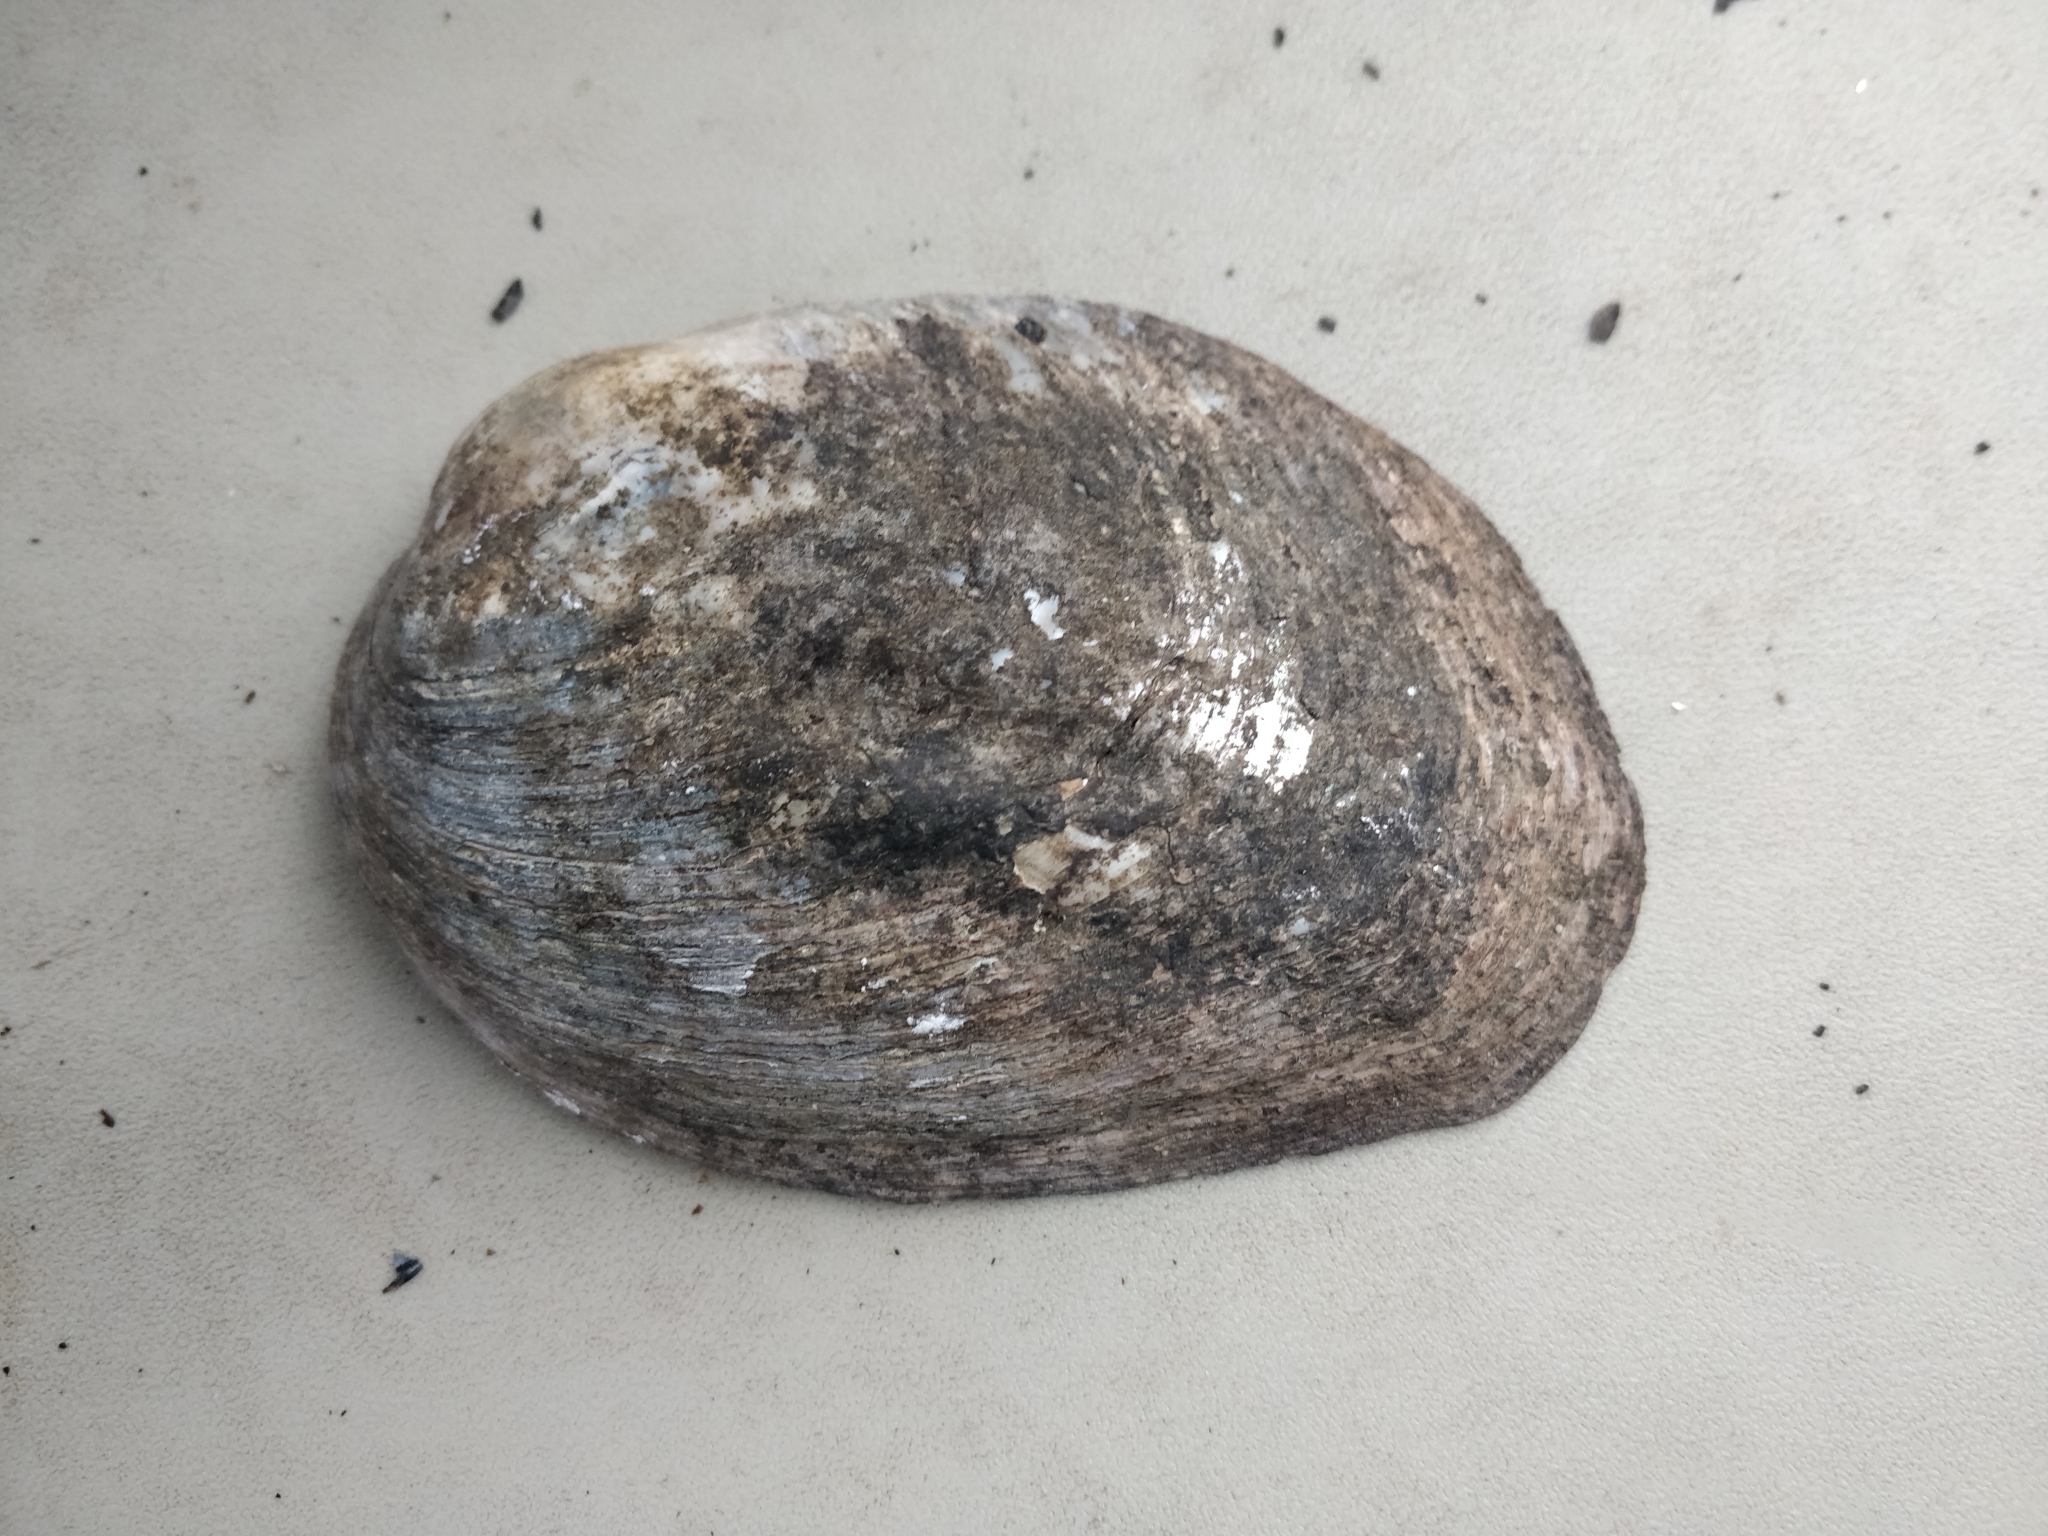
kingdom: Animalia
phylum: Mollusca
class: Bivalvia
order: Unionida
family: Unionidae
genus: Amblema
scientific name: Amblema plicata
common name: Threeridge
